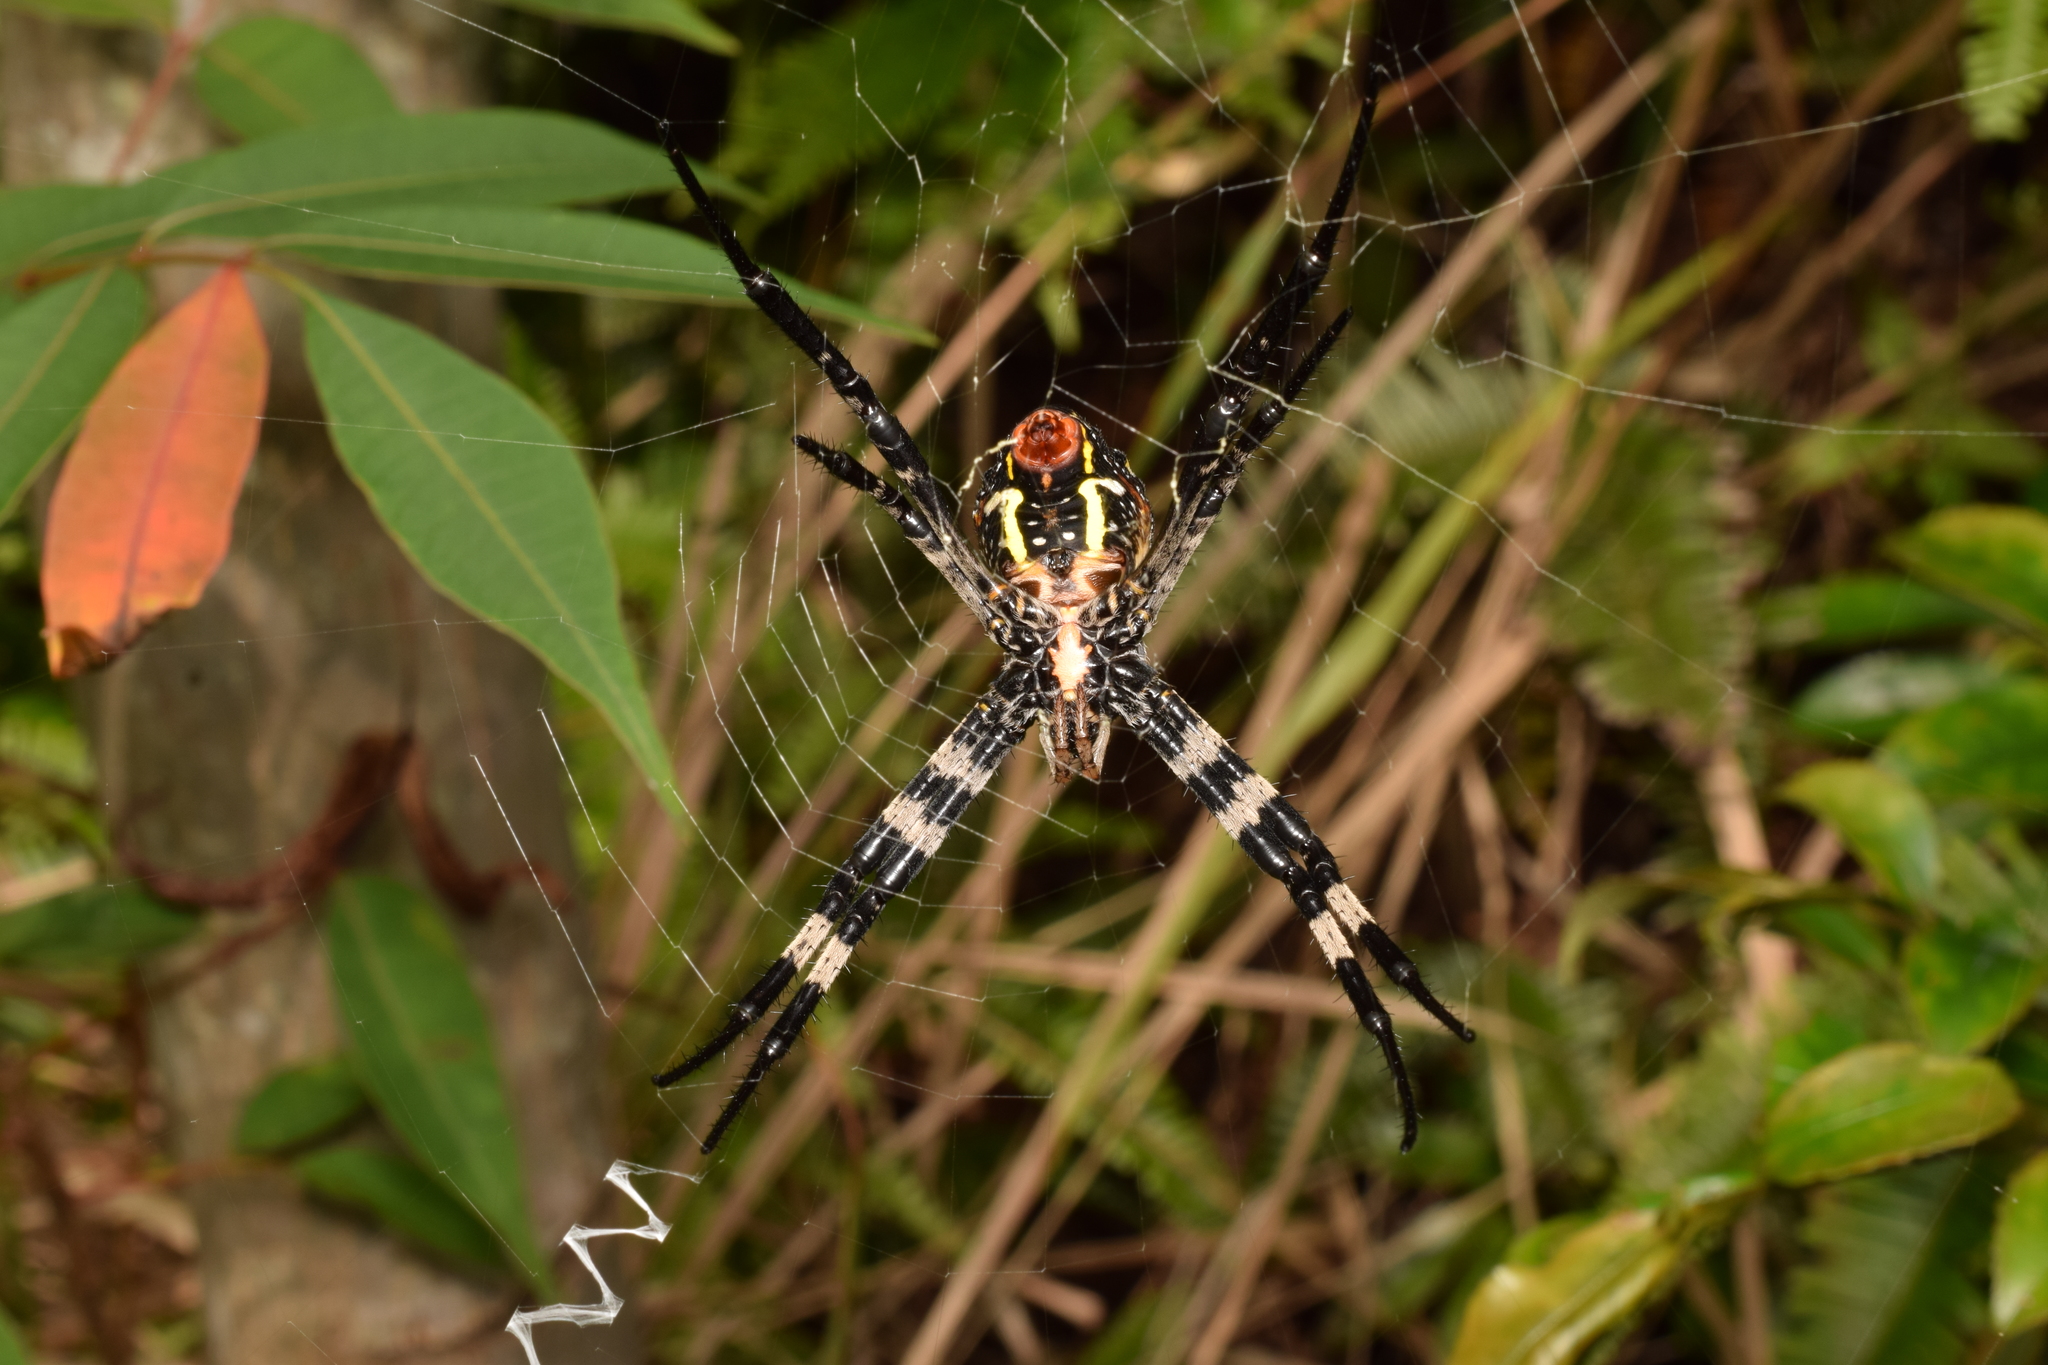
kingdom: Animalia
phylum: Arthropoda
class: Arachnida
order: Araneae
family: Araneidae
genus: Argiope
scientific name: Argiope amoena
